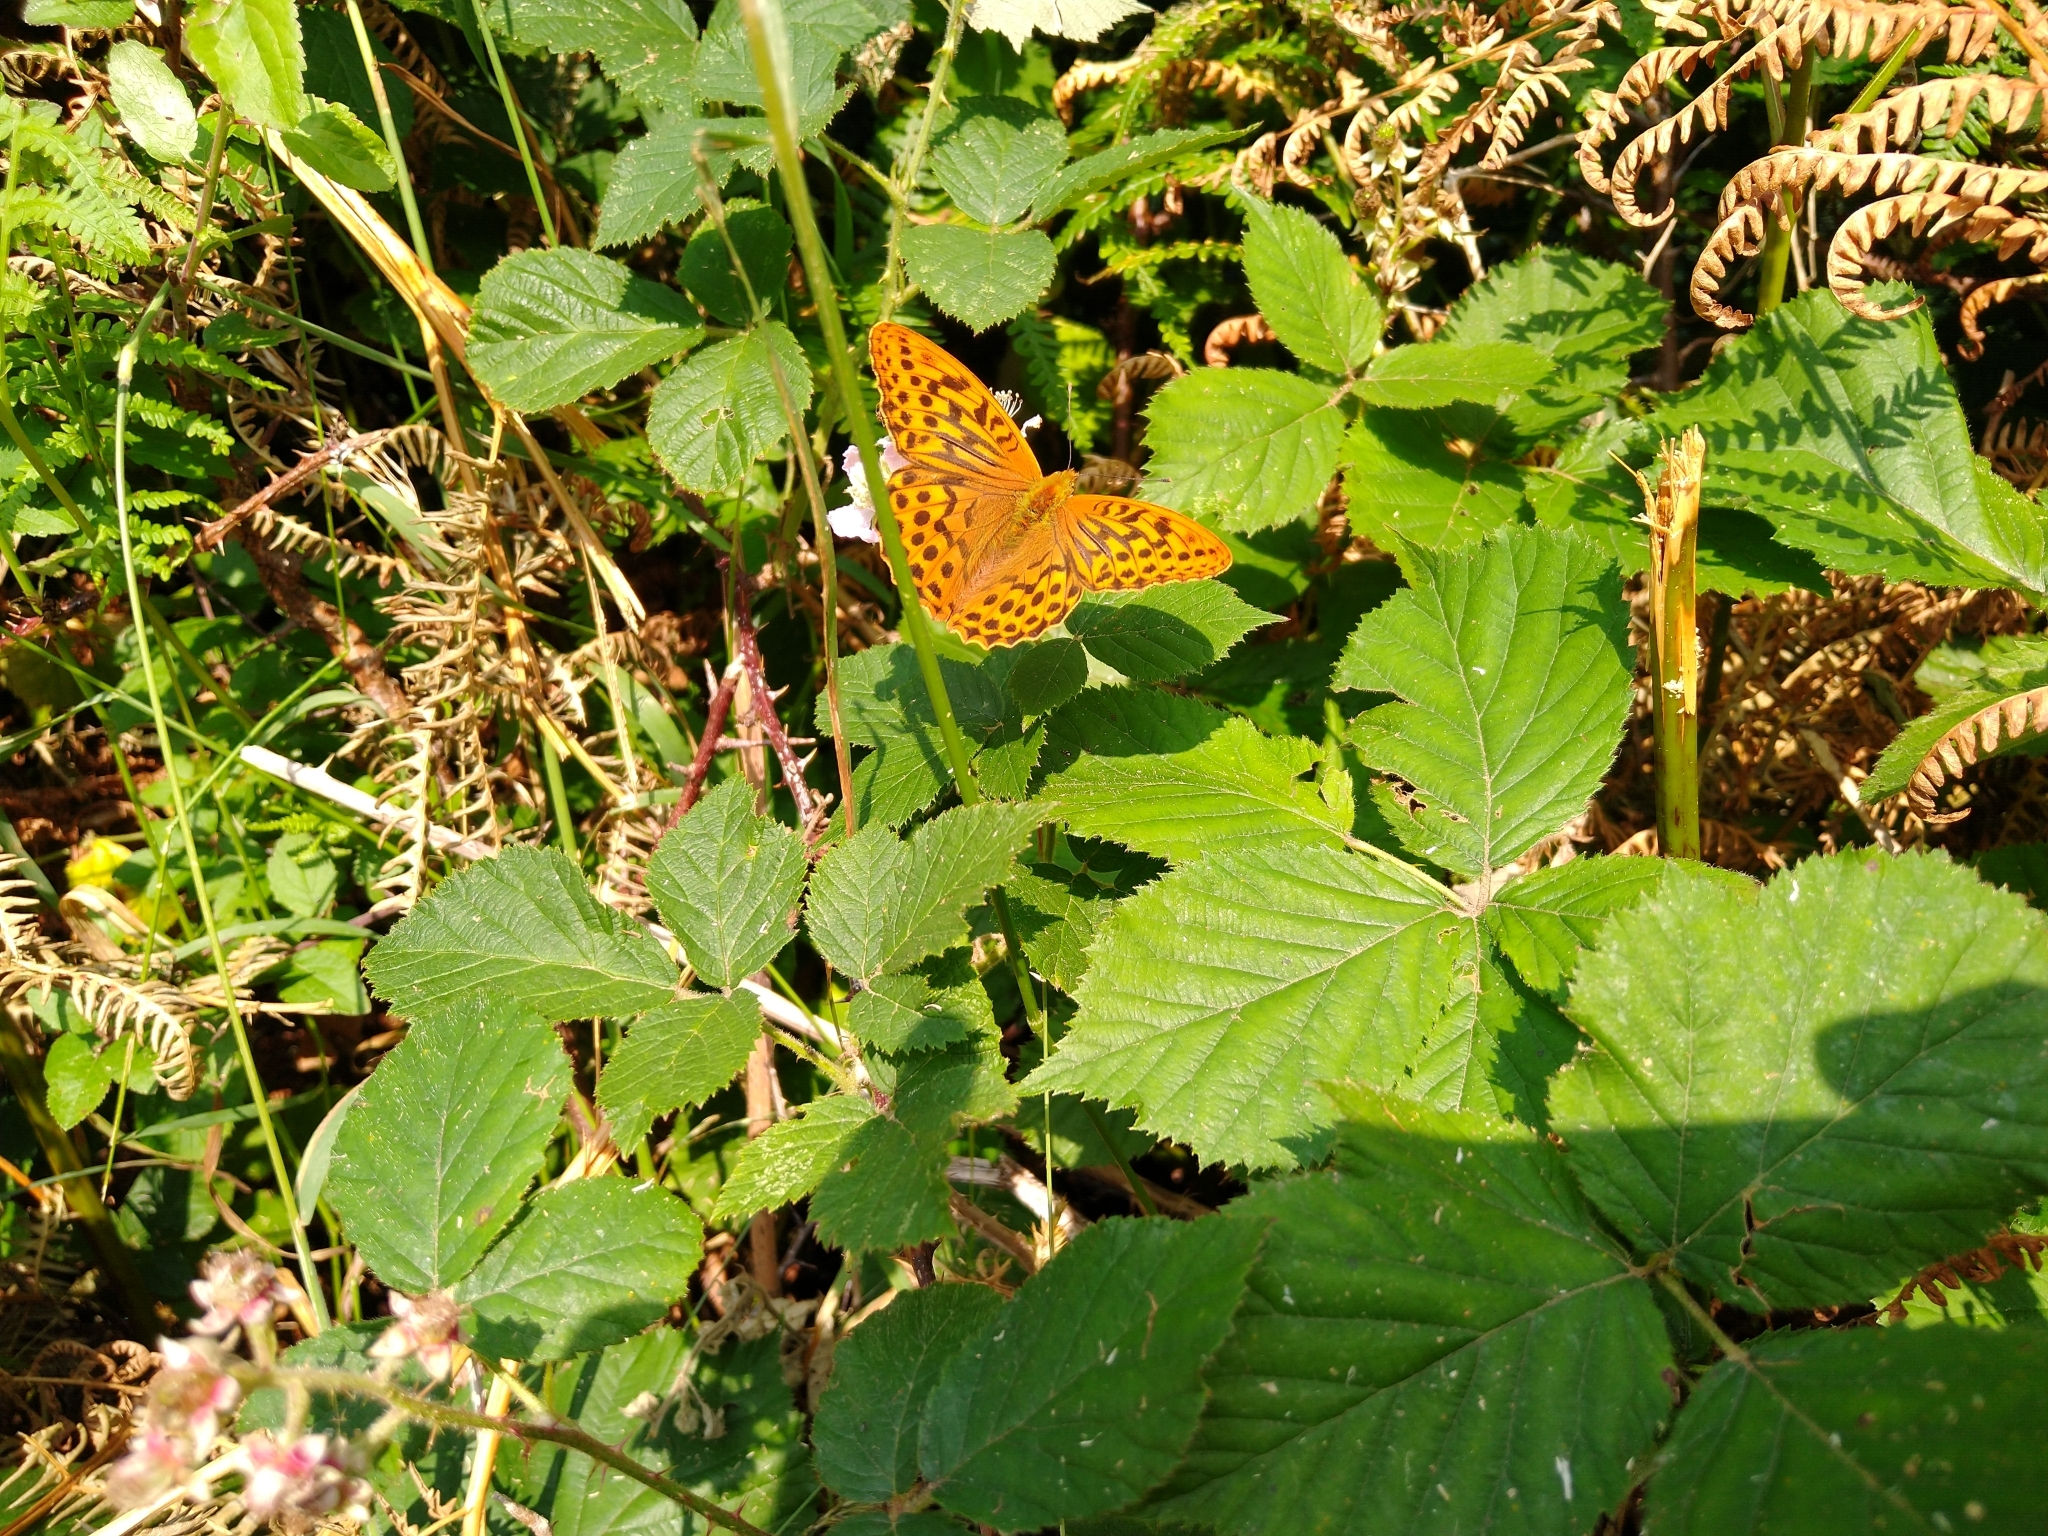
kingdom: Animalia
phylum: Arthropoda
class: Insecta
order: Lepidoptera
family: Nymphalidae
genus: Argynnis
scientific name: Argynnis paphia
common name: Silver-washed fritillary
